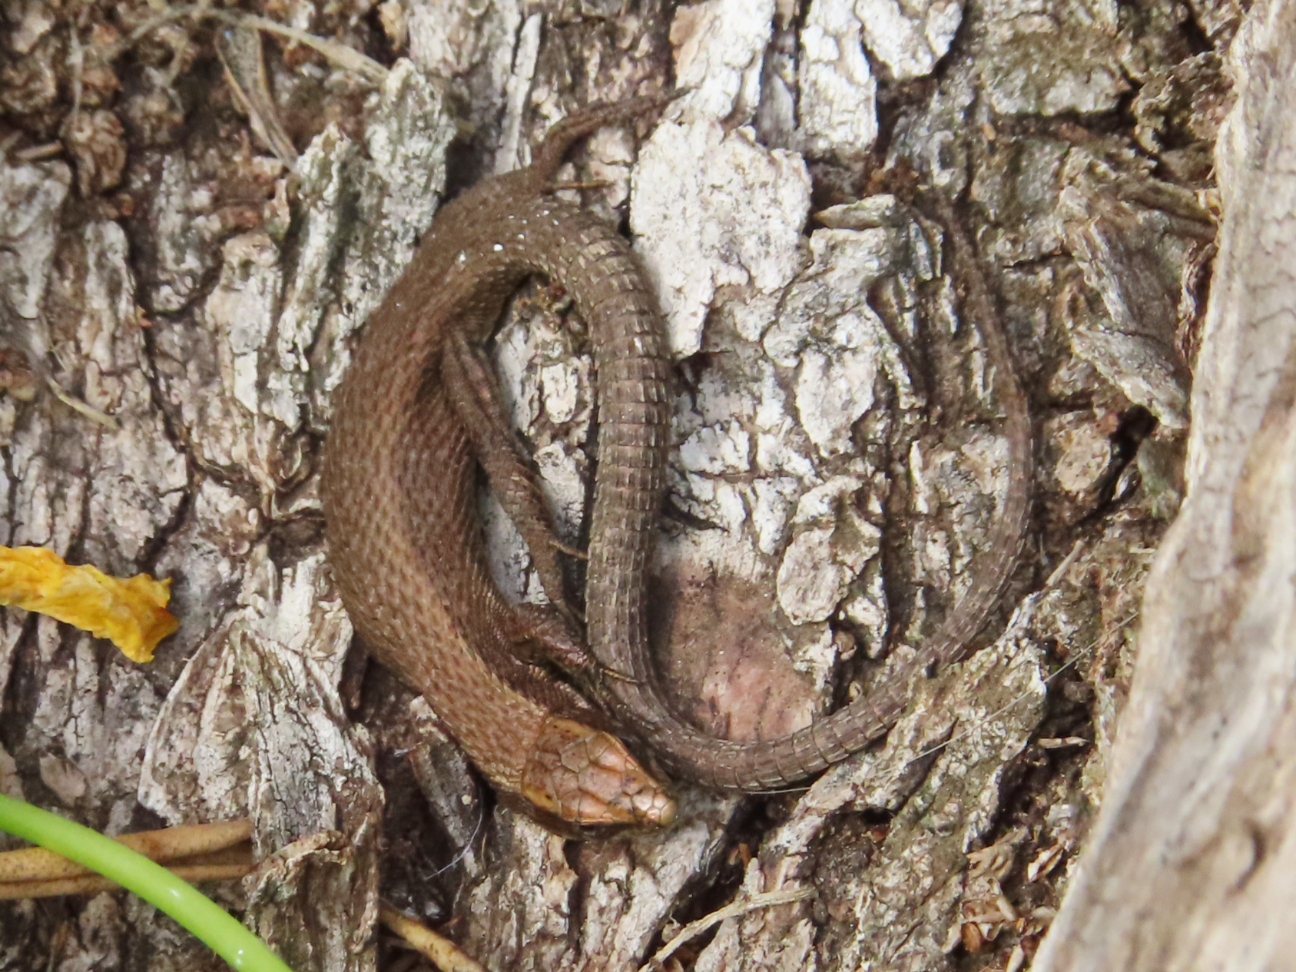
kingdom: Animalia
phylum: Chordata
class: Squamata
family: Lacertidae
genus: Algyroides
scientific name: Algyroides moreoticus
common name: Greek algyroides
